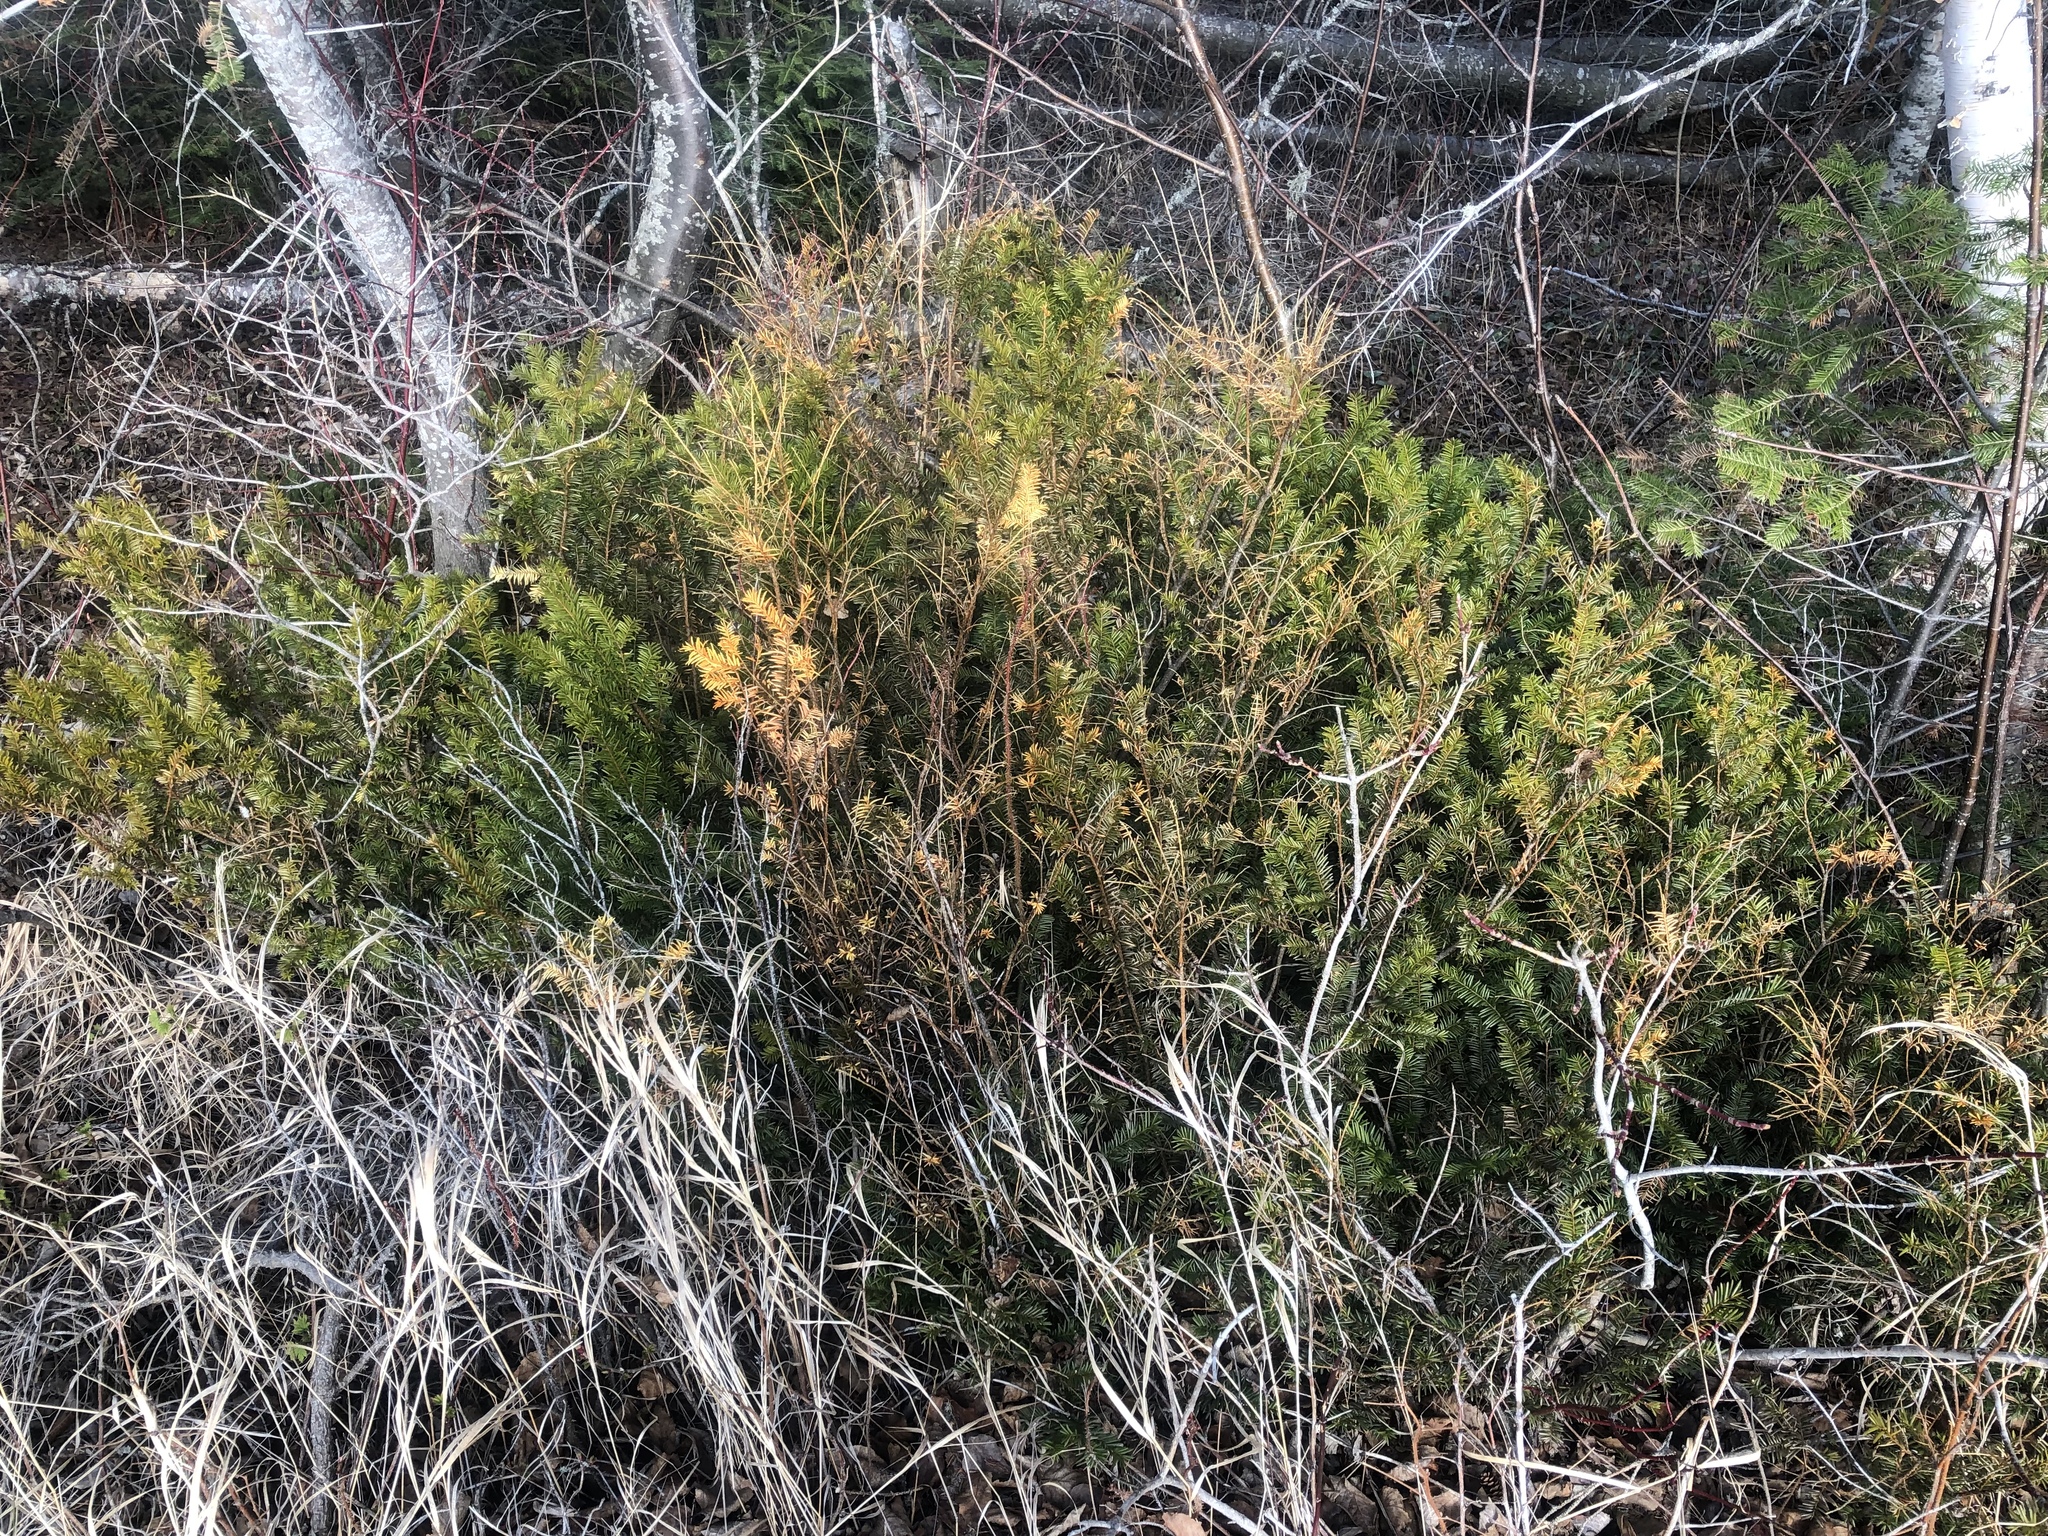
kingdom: Plantae
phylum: Tracheophyta
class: Pinopsida
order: Pinales
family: Taxaceae
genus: Taxus
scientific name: Taxus canadensis
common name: American yew
